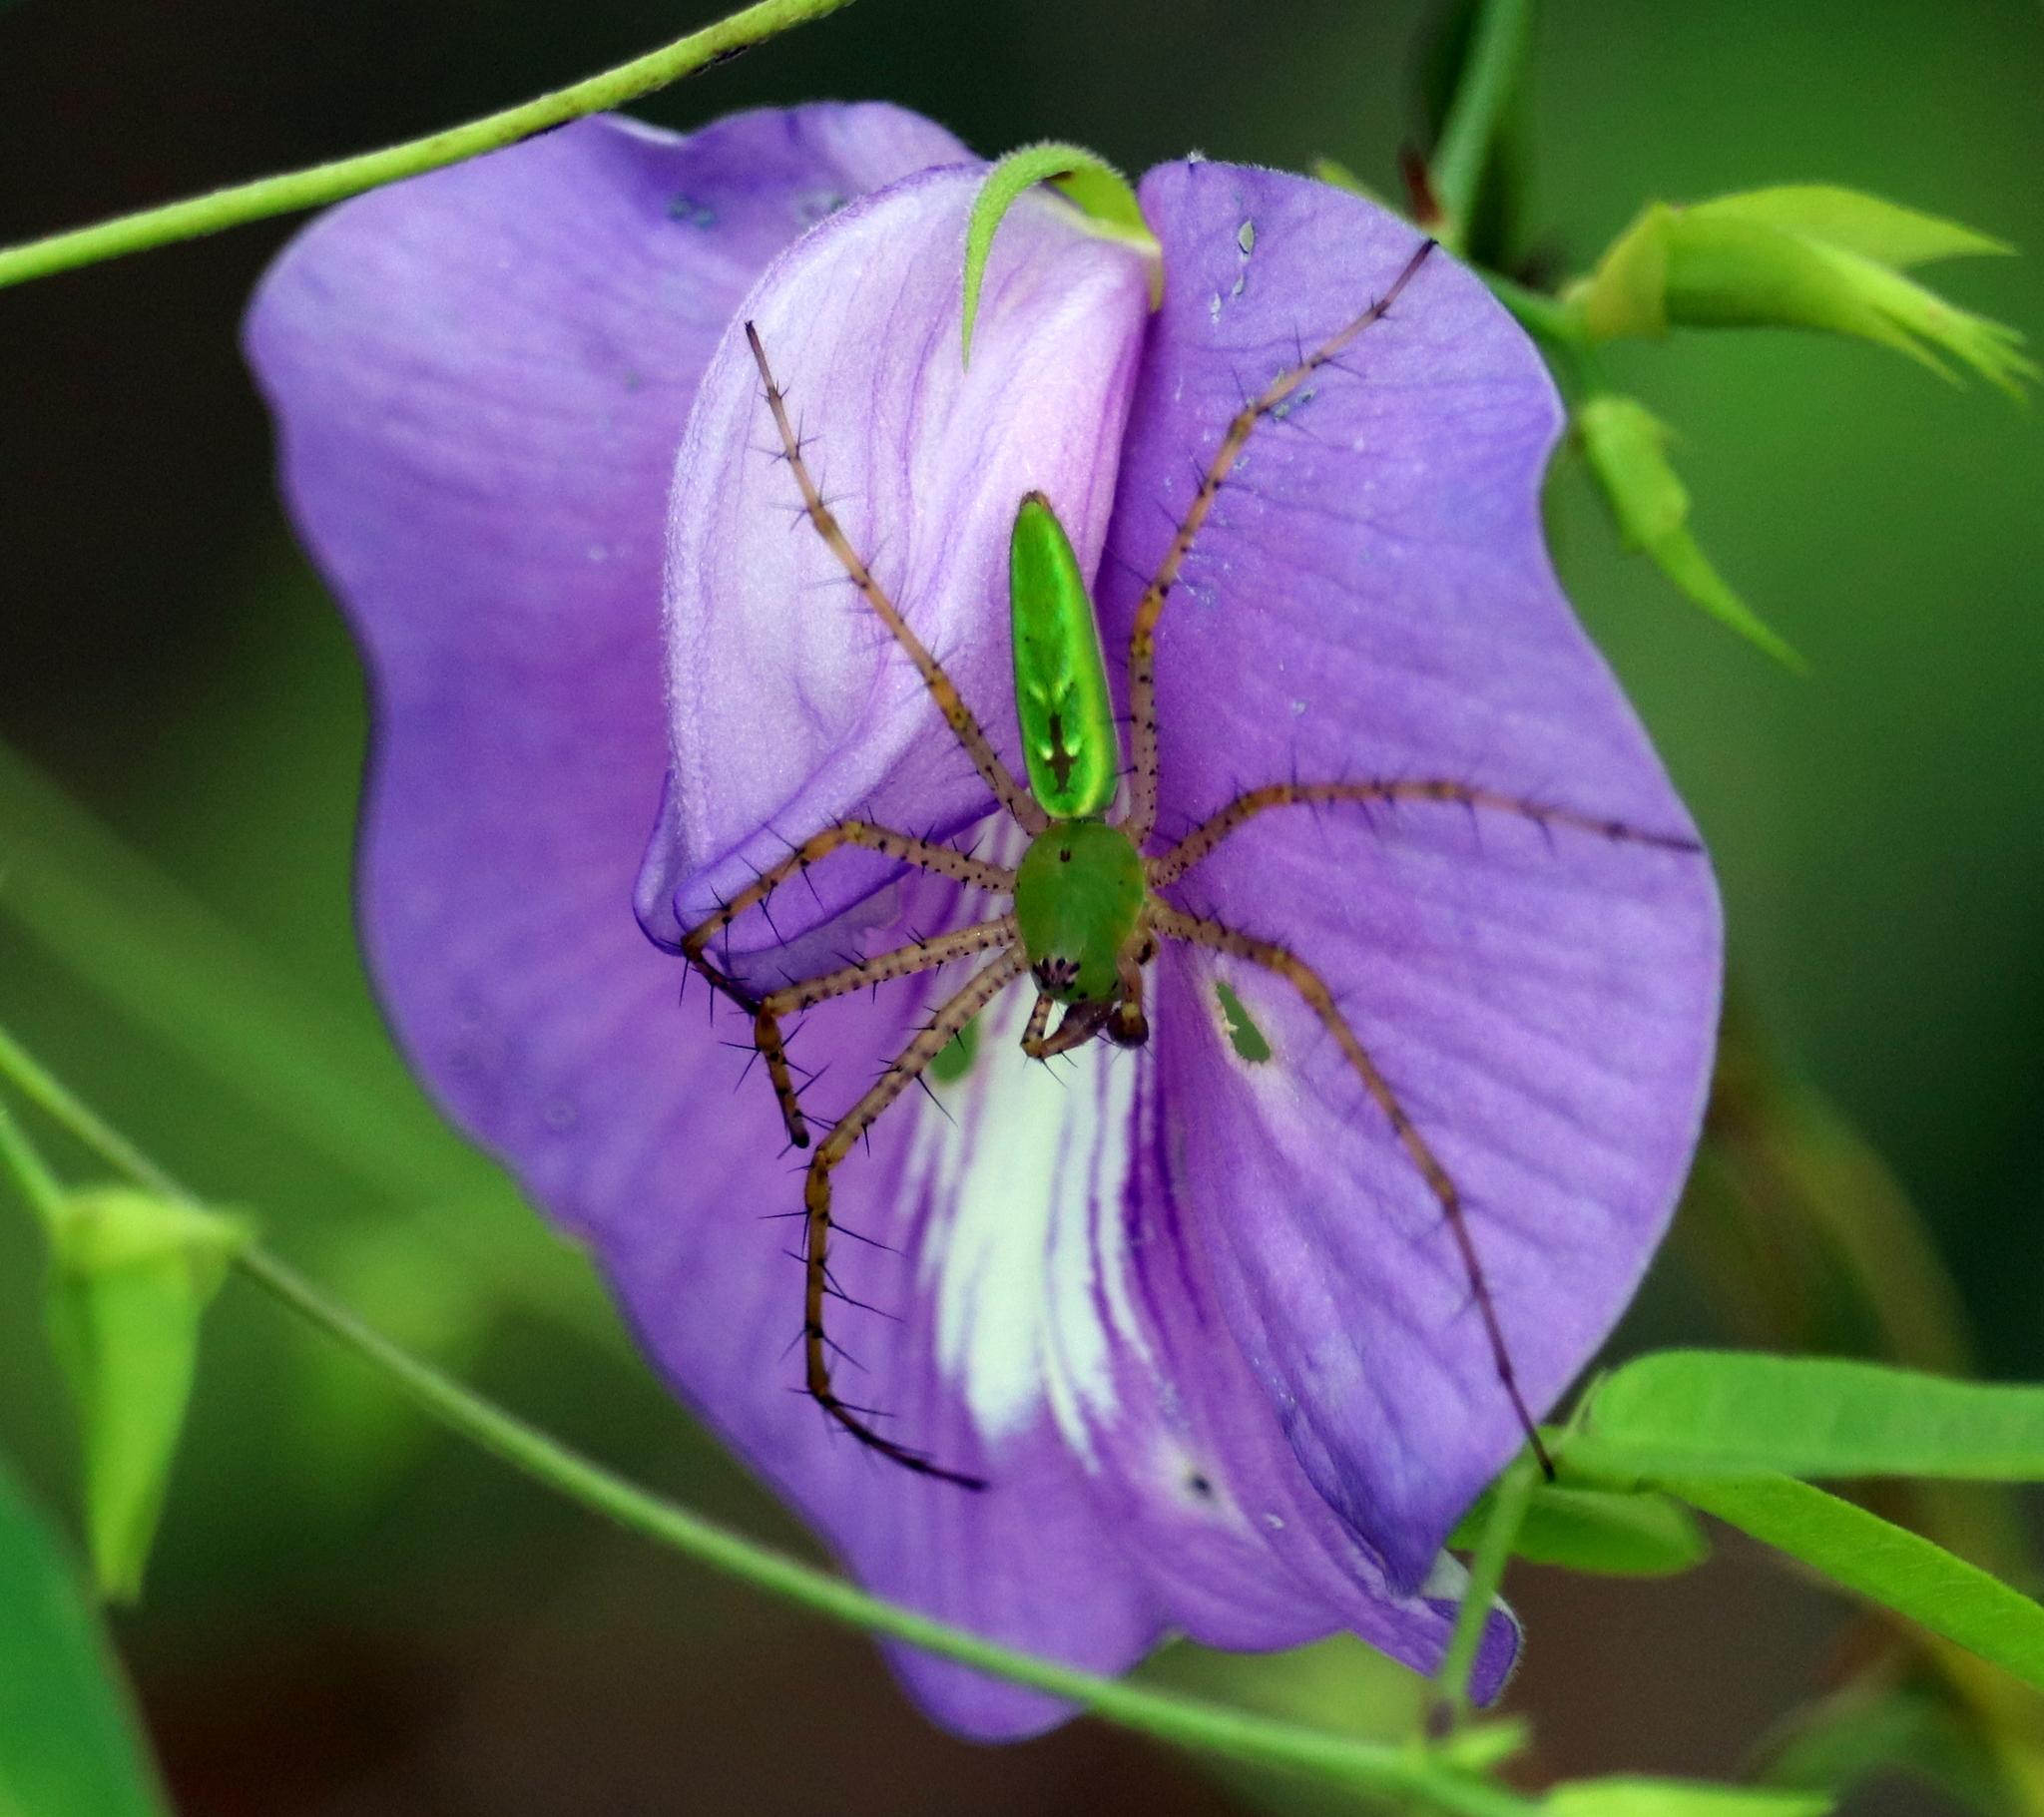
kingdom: Animalia
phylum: Arthropoda
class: Arachnida
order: Araneae
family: Oxyopidae
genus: Peucetia
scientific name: Peucetia viridans
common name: Lynx spiders
